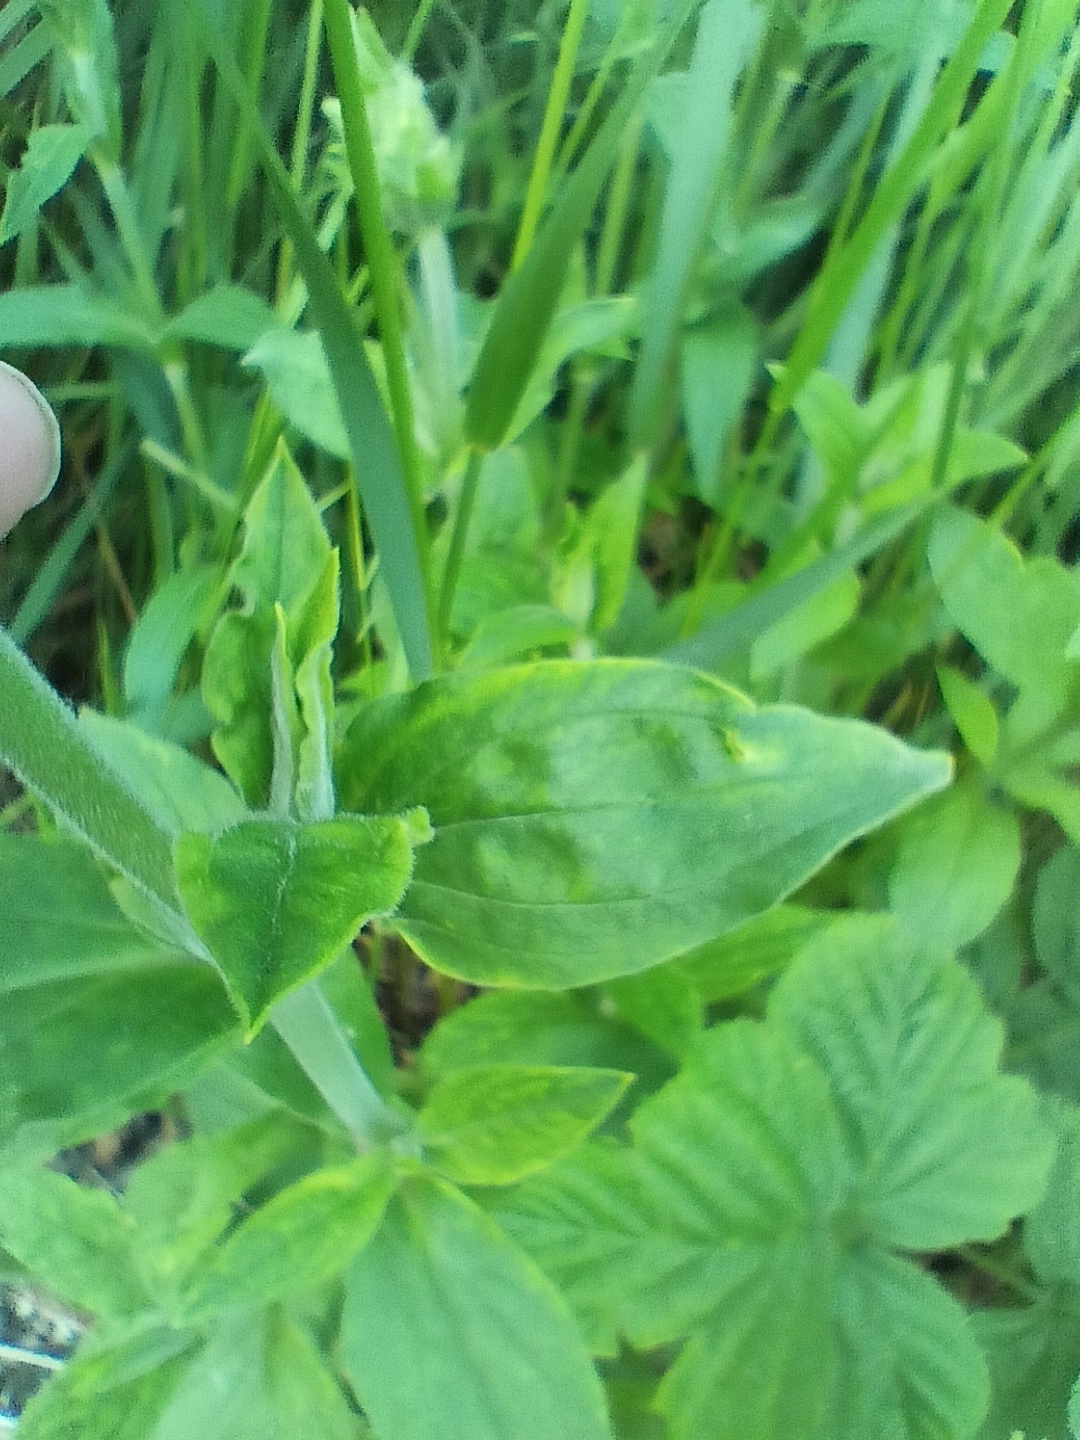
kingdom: Plantae
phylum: Tracheophyta
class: Magnoliopsida
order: Caryophyllales
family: Caryophyllaceae
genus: Silene
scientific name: Silene latifolia
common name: White campion
